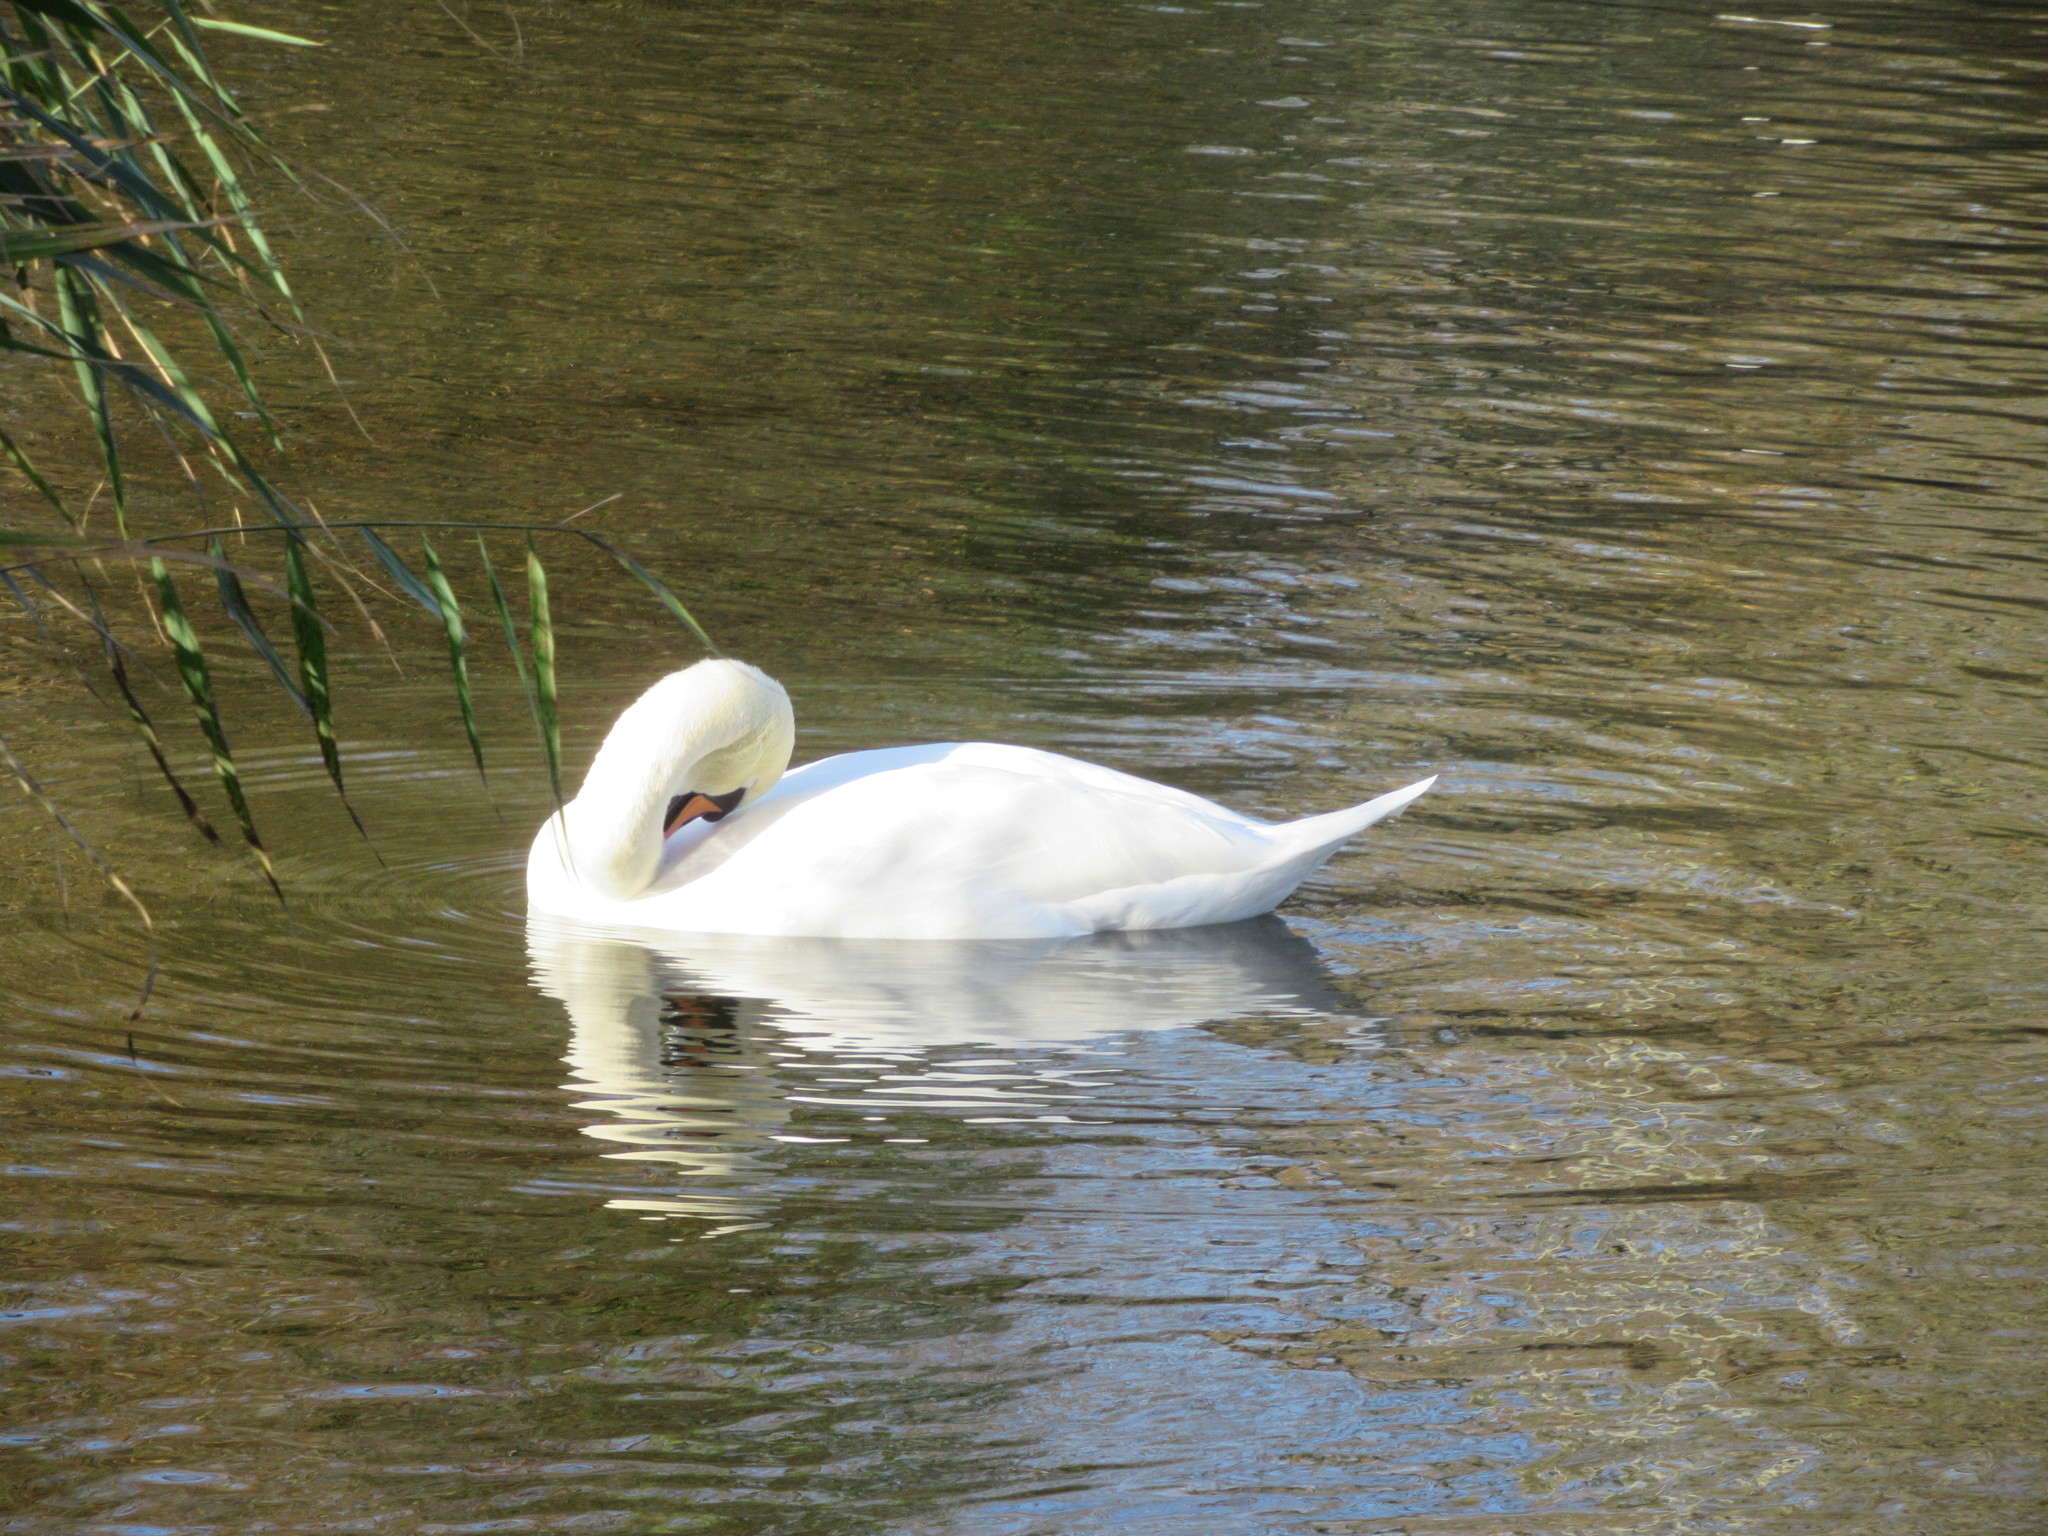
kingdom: Animalia
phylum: Chordata
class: Aves
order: Anseriformes
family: Anatidae
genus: Cygnus
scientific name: Cygnus olor
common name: Mute swan
